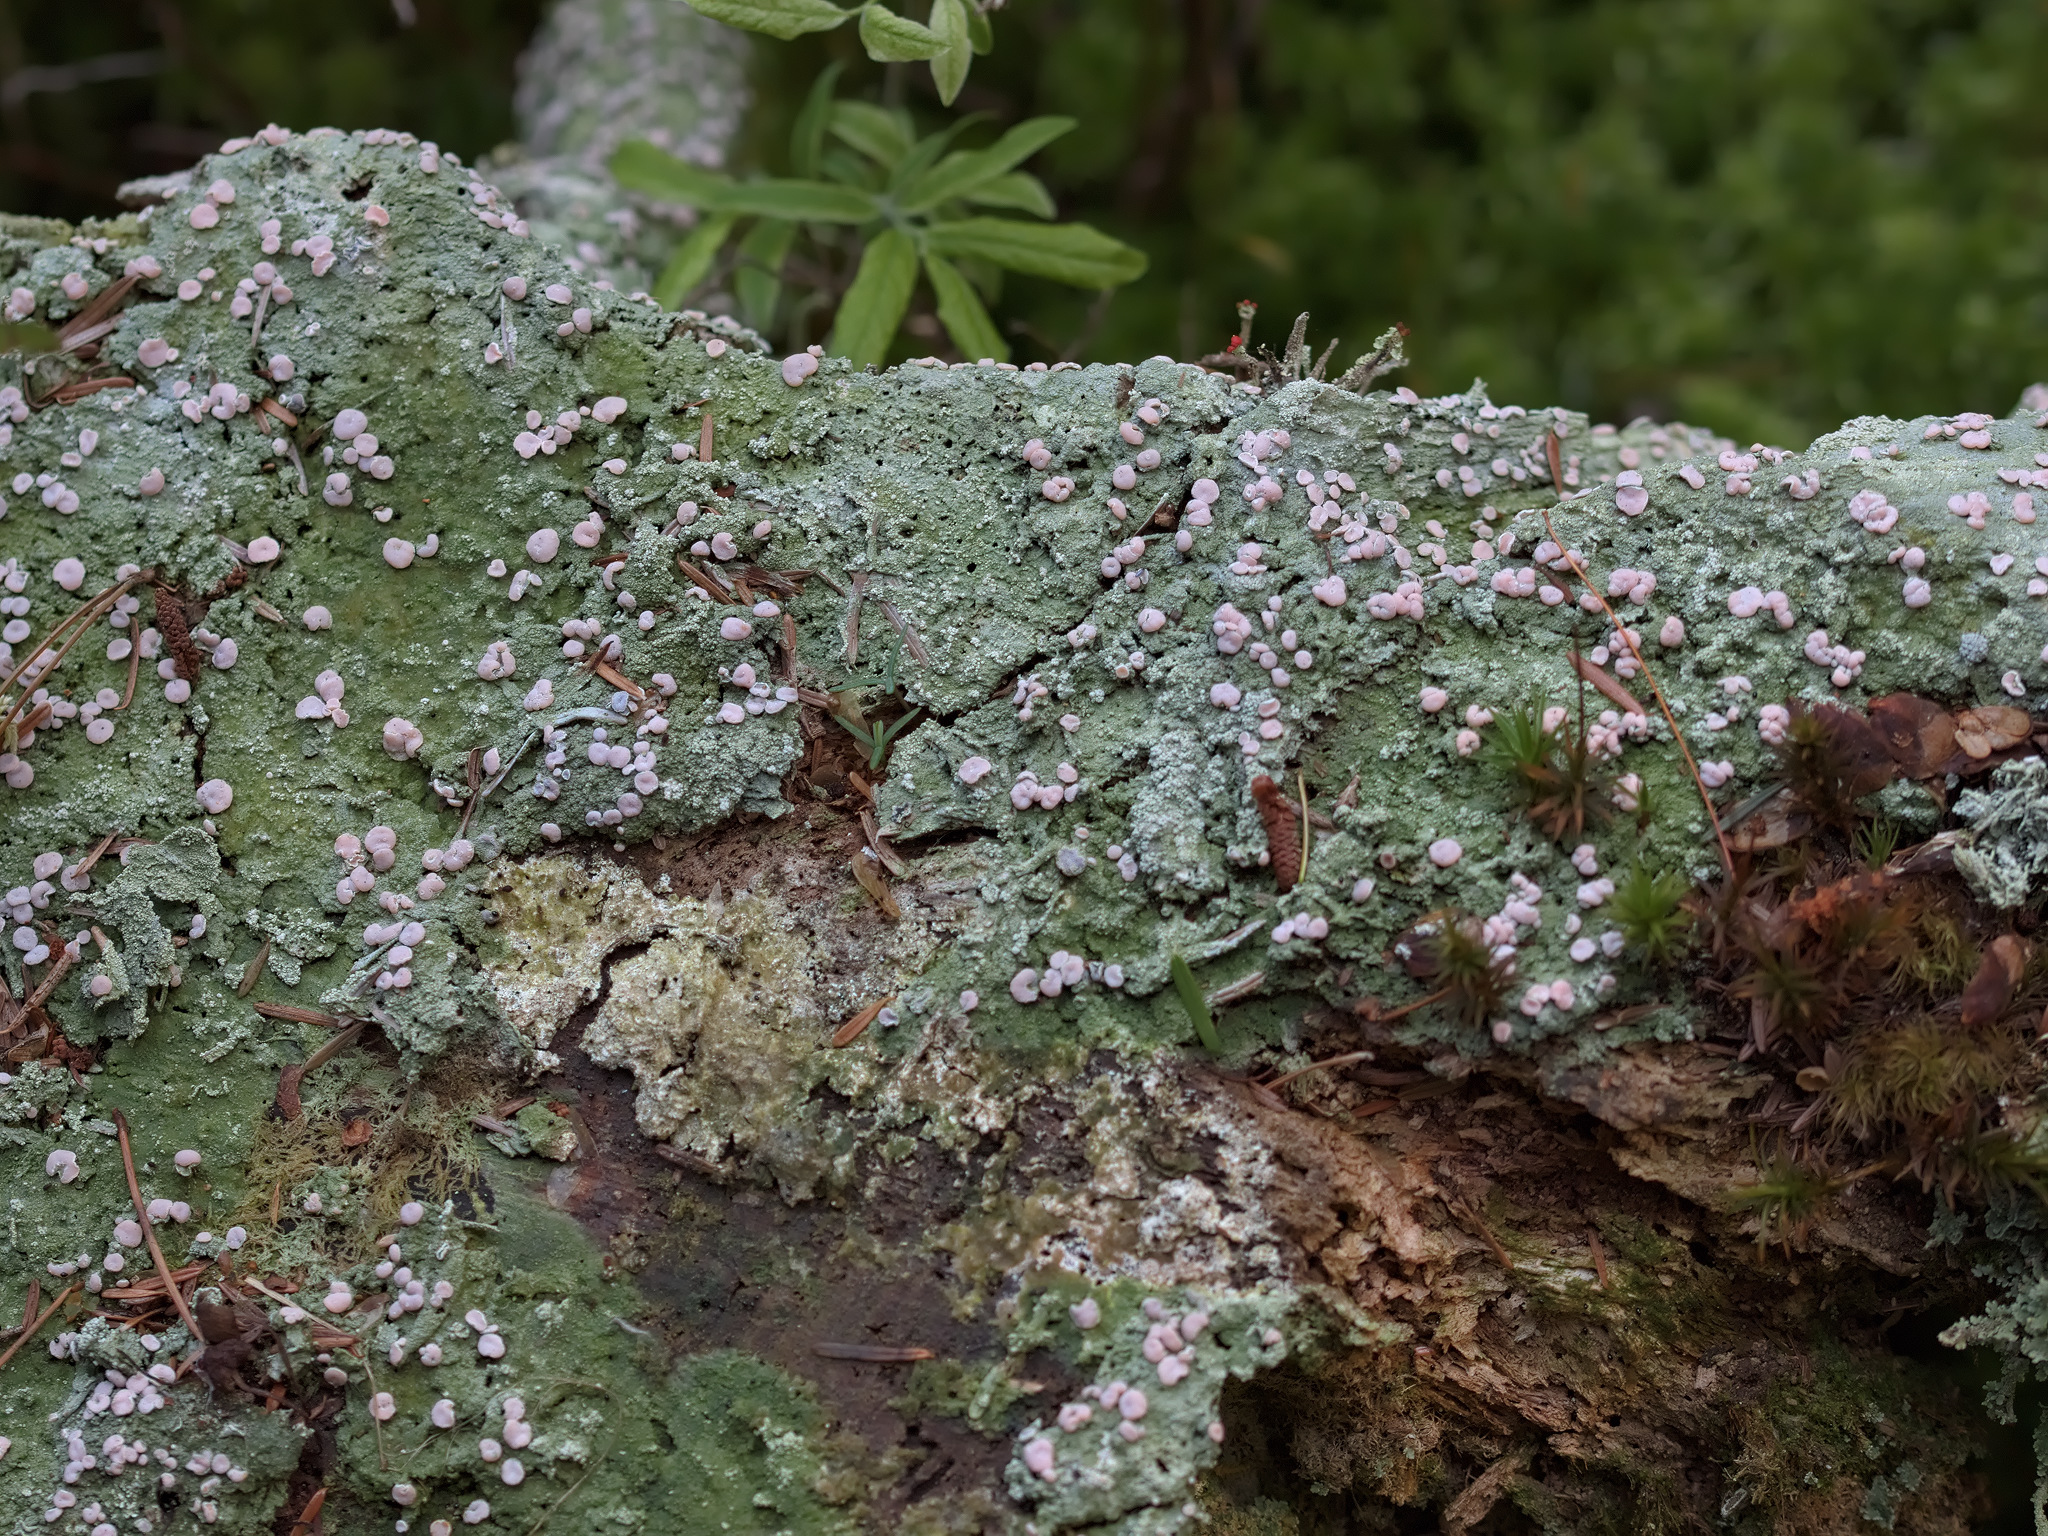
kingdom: Fungi
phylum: Ascomycota
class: Lecanoromycetes
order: Pertusariales
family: Icmadophilaceae
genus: Icmadophila
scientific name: Icmadophila ericetorum
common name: Candy lichen
